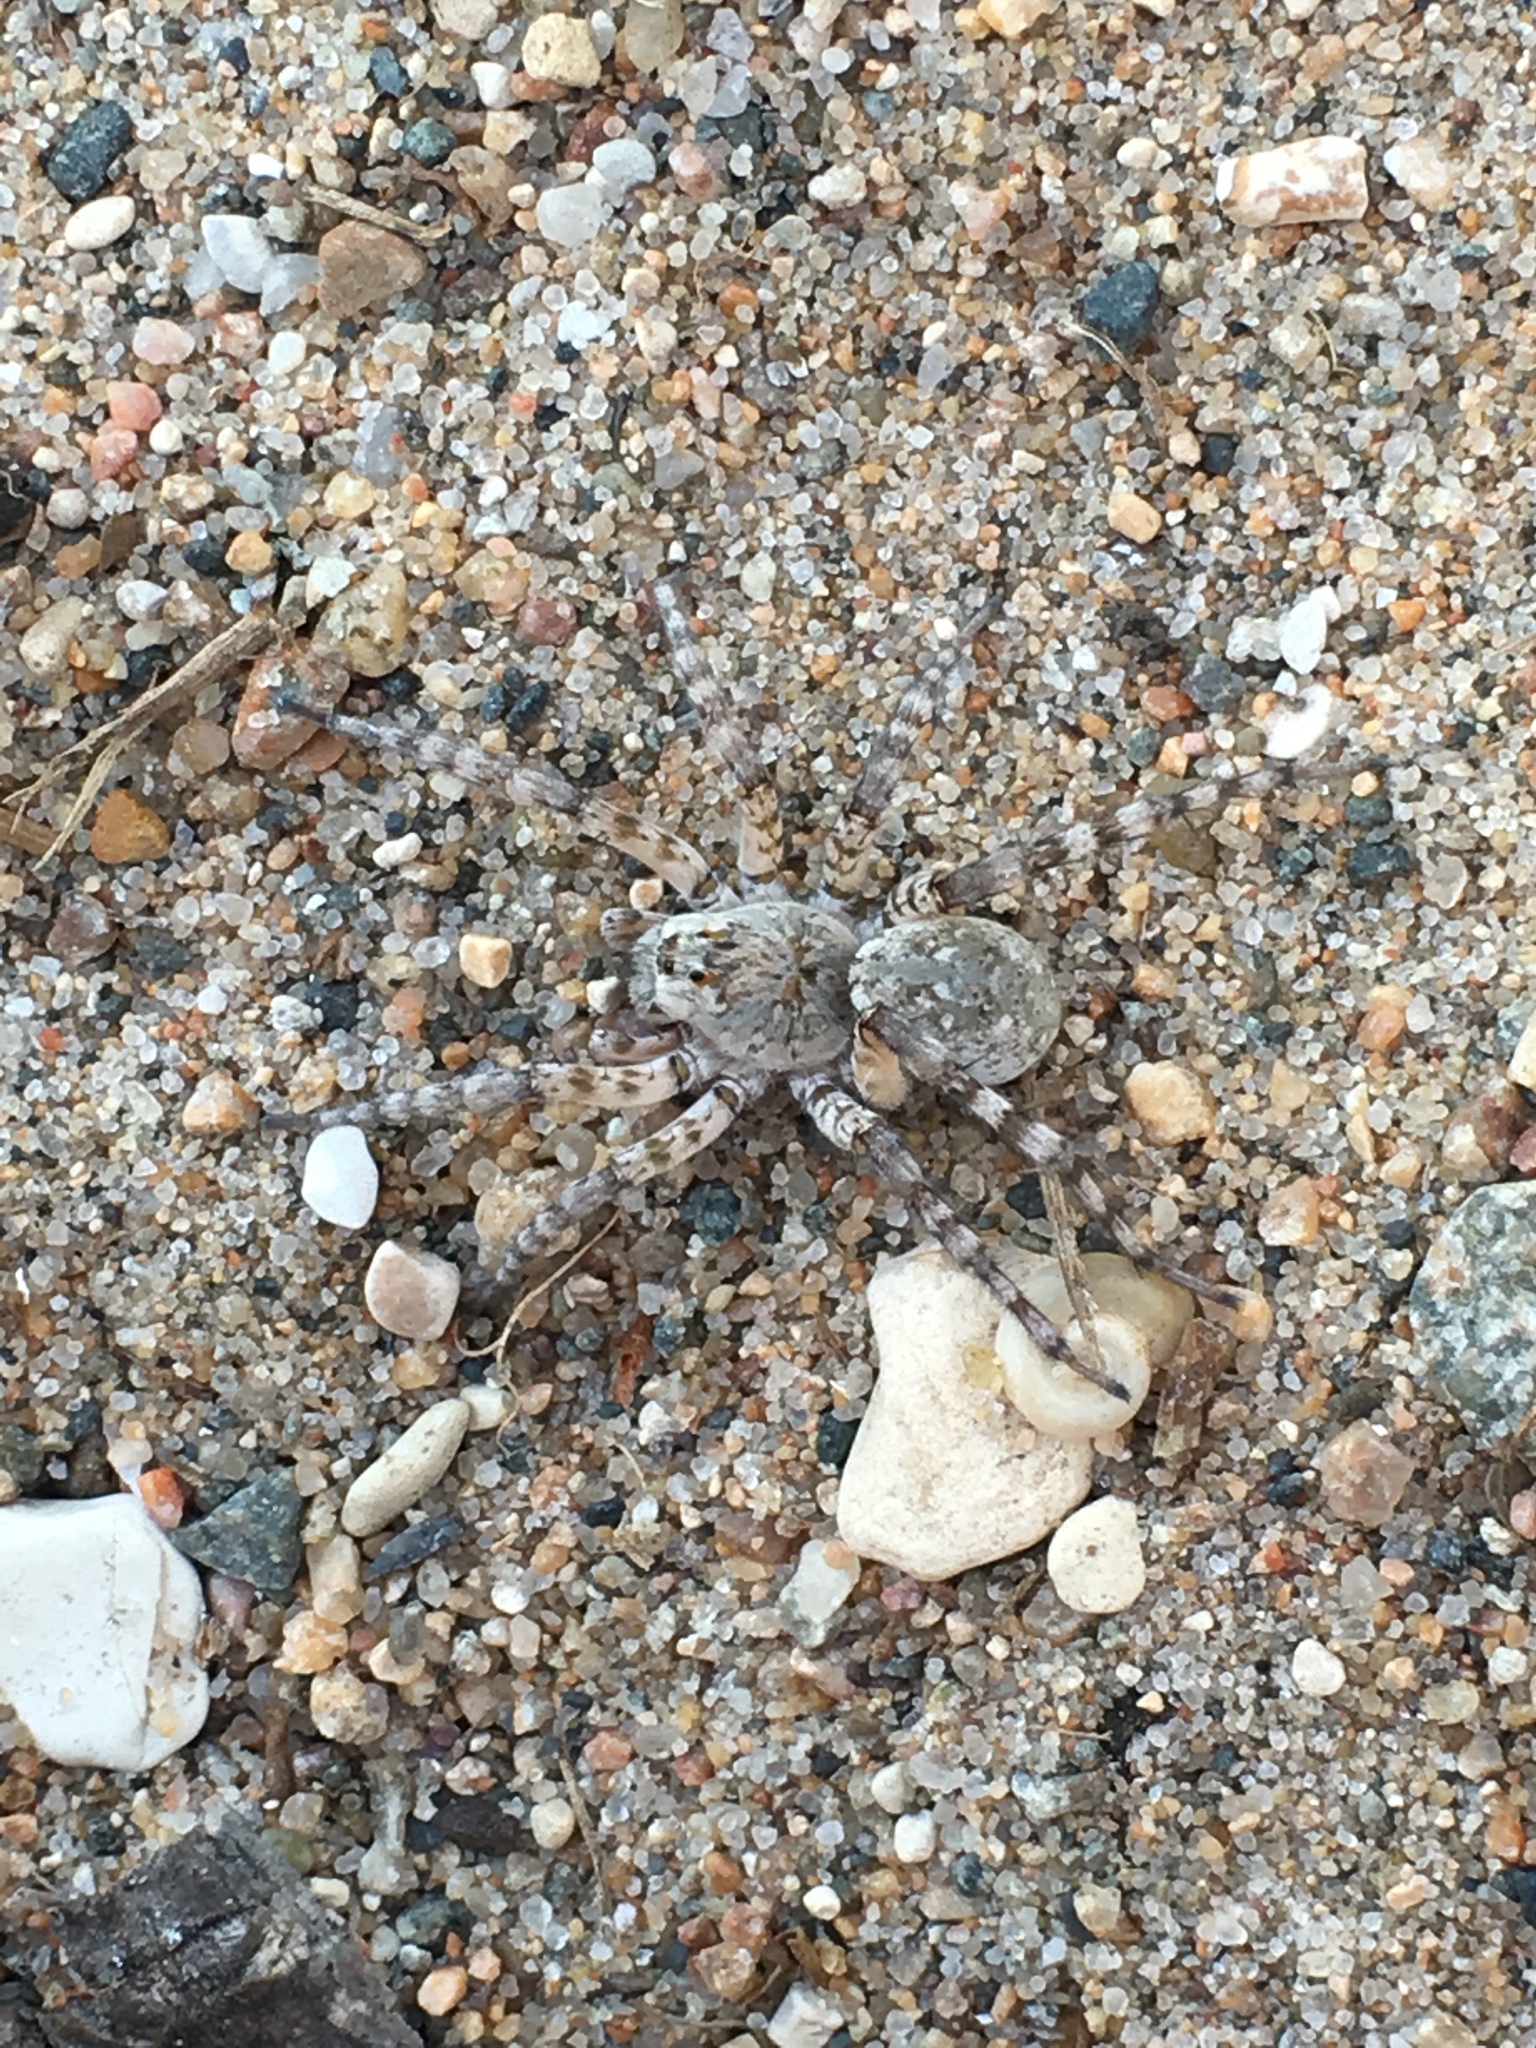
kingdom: Animalia
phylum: Arthropoda
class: Arachnida
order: Araneae
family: Lycosidae
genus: Arctosa
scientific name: Arctosa littoralis
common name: Wolf spiders
